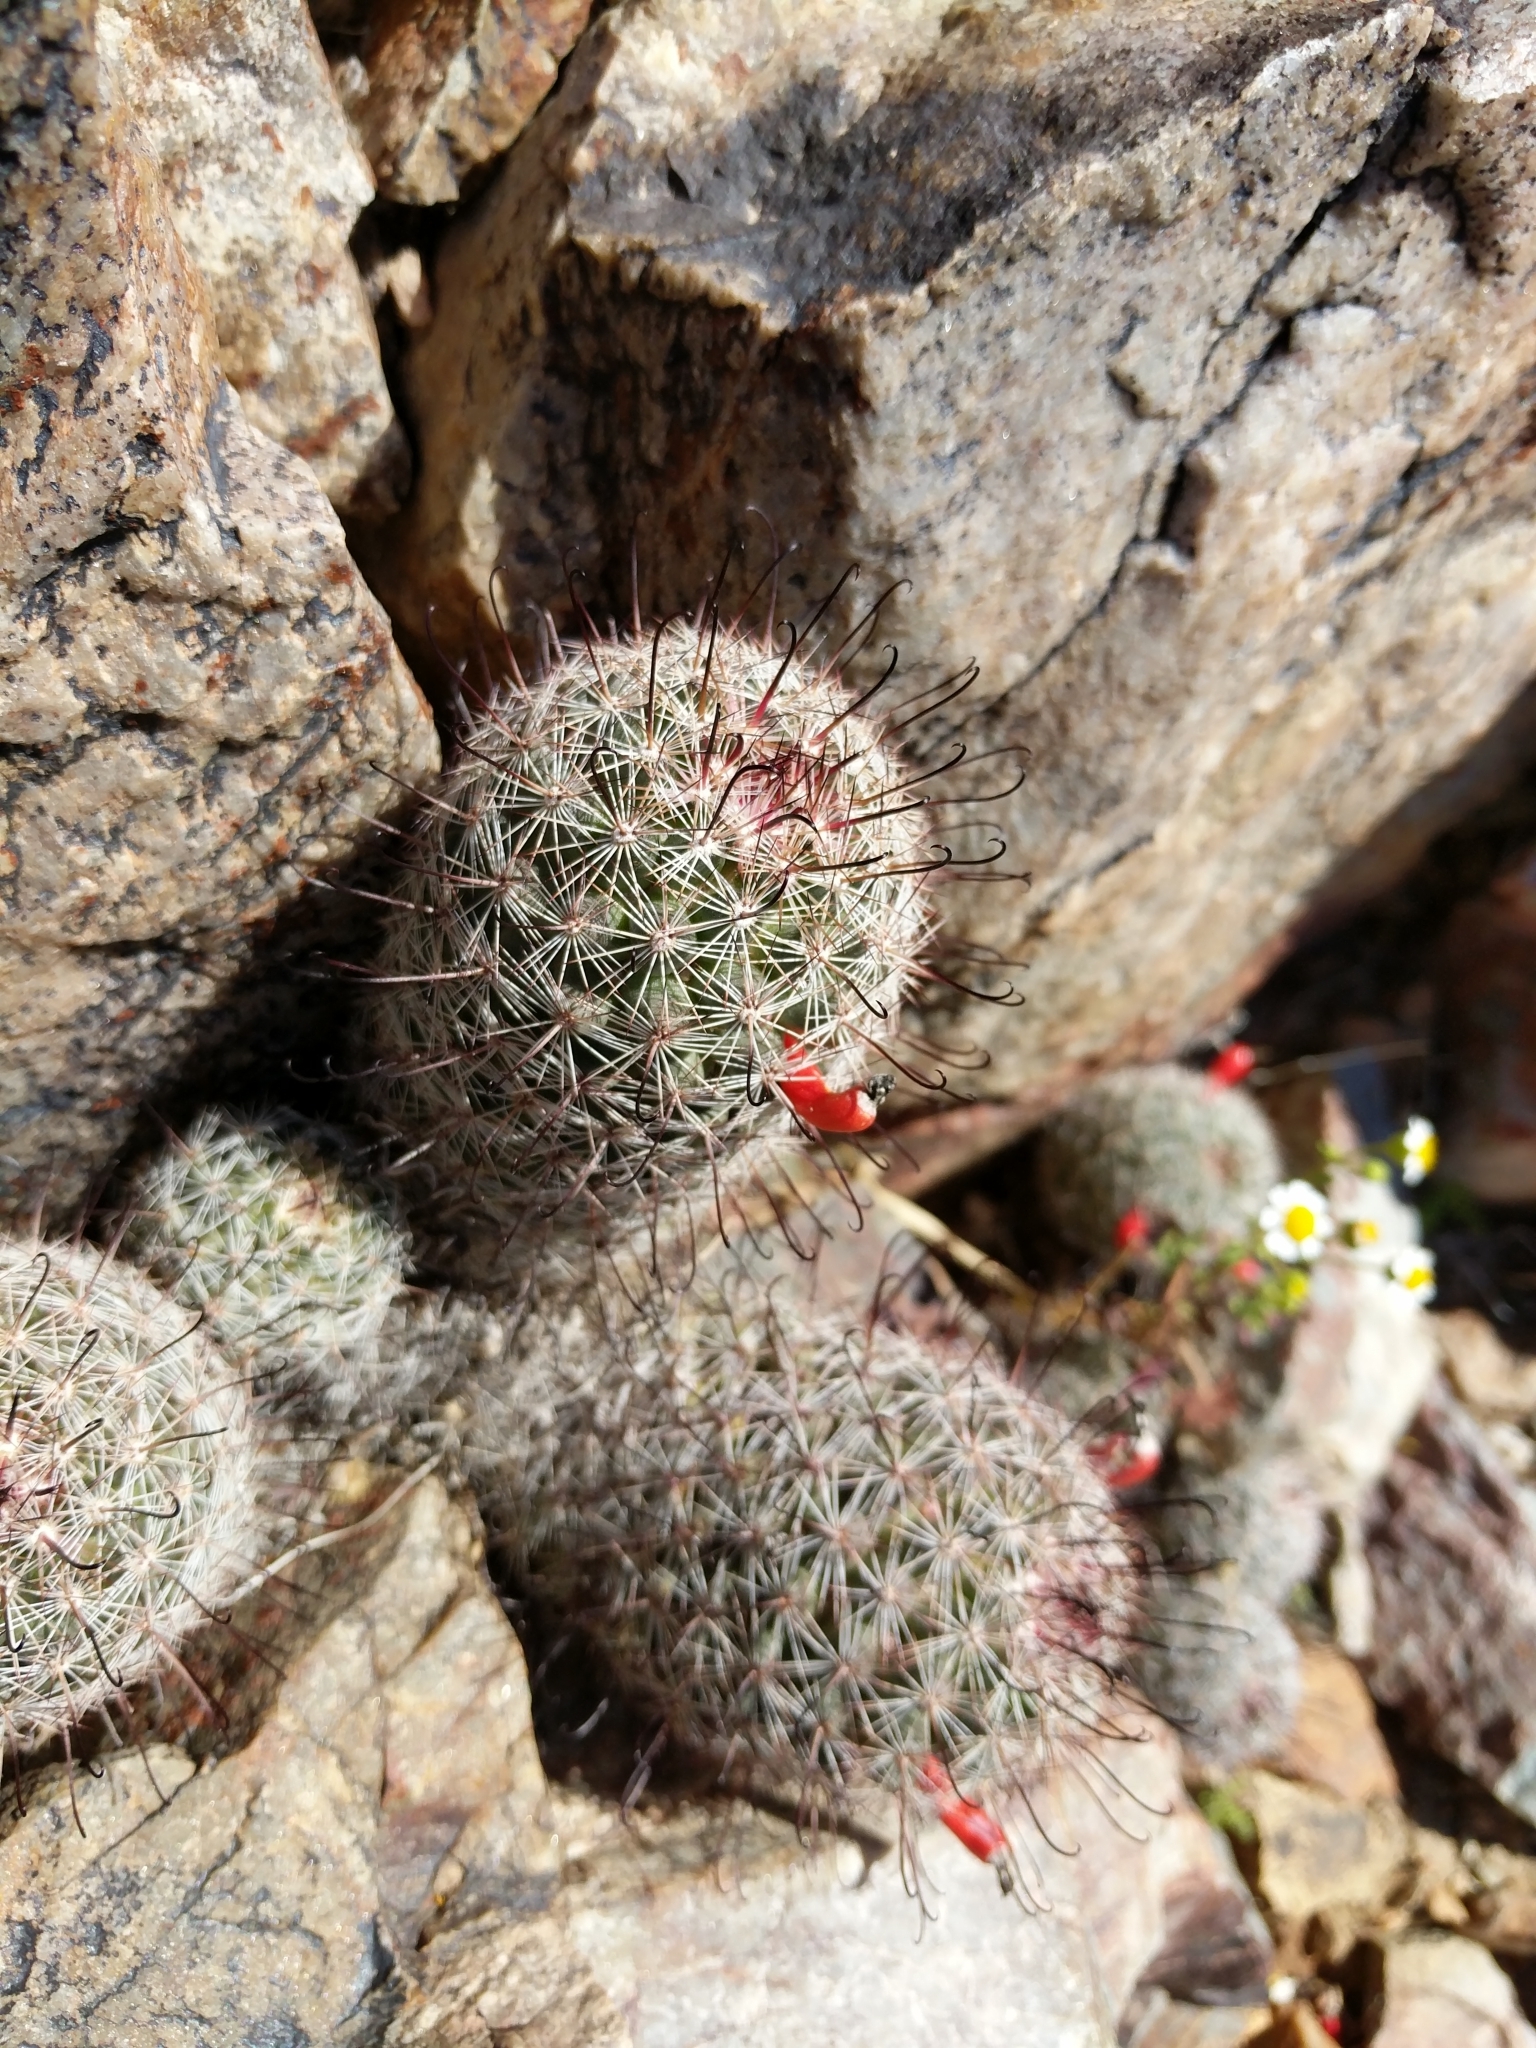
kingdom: Plantae
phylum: Tracheophyta
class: Magnoliopsida
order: Caryophyllales
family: Cactaceae
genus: Cochemiea
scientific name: Cochemiea grahamii
